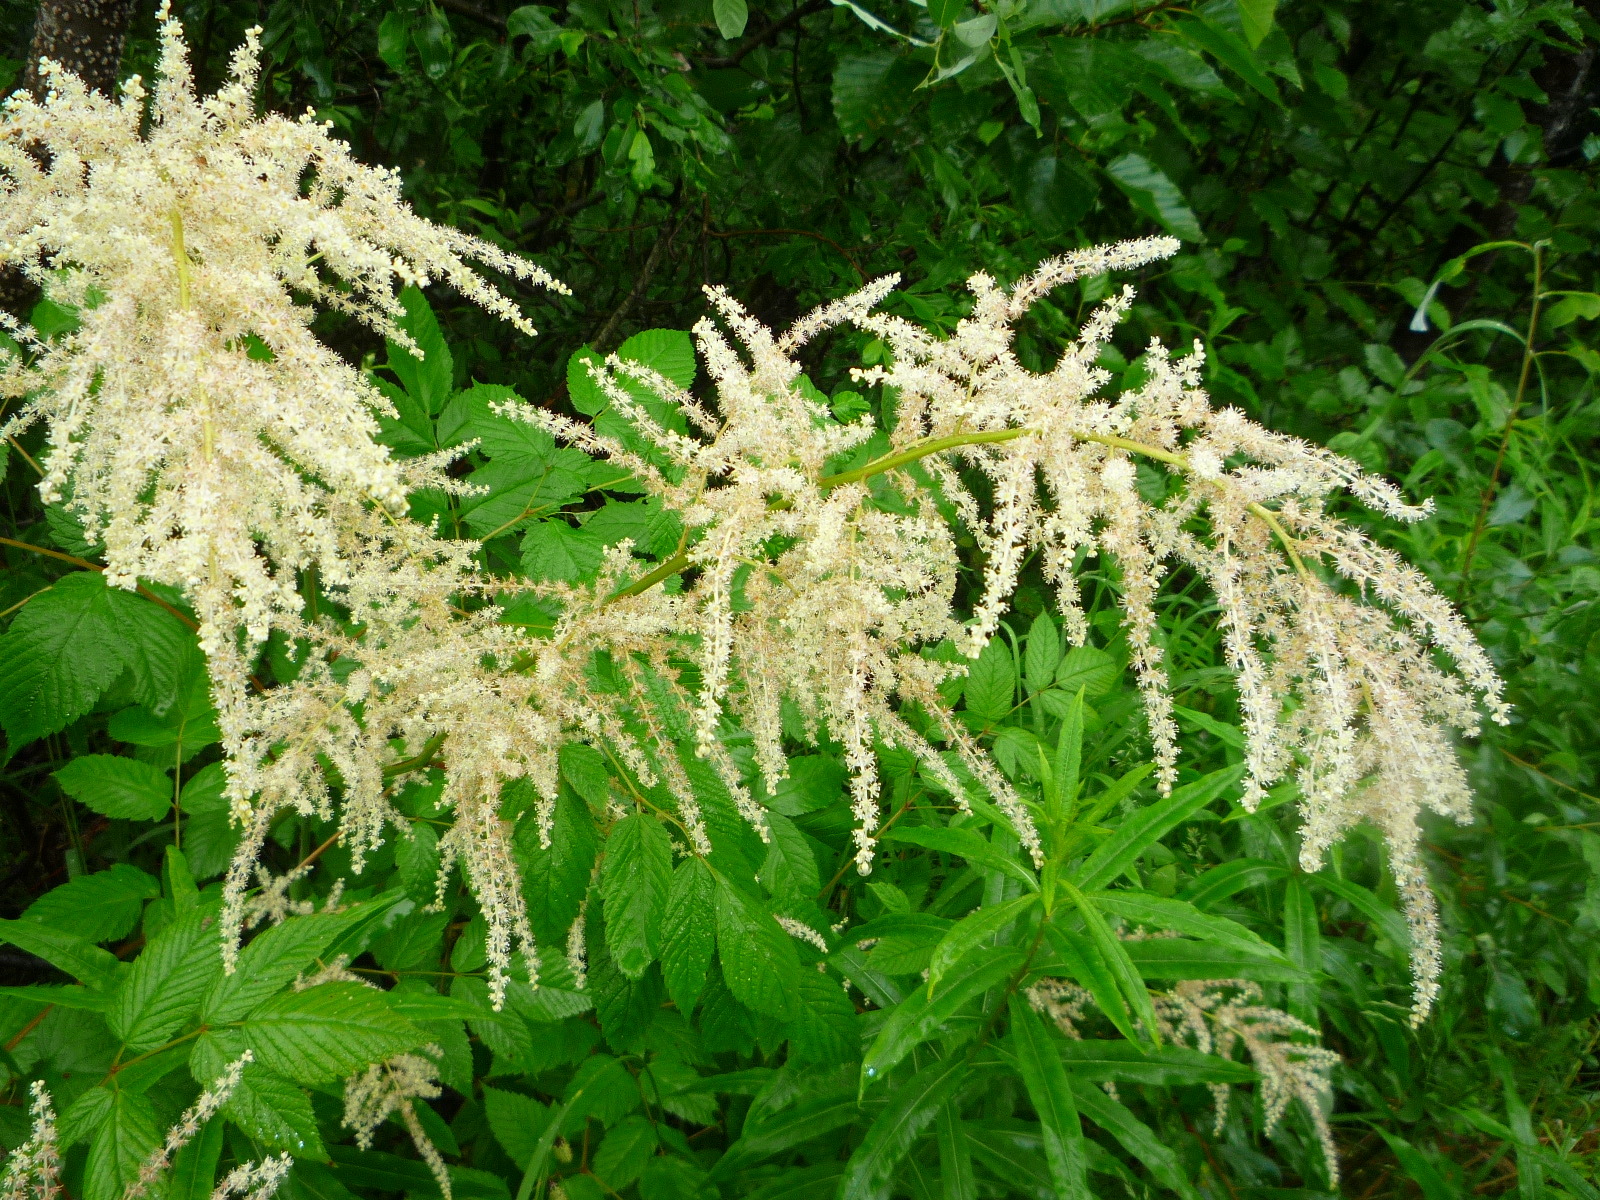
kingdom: Plantae
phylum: Tracheophyta
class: Magnoliopsida
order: Rosales
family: Rosaceae
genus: Aruncus
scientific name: Aruncus dioicus
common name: Buck's-beard
